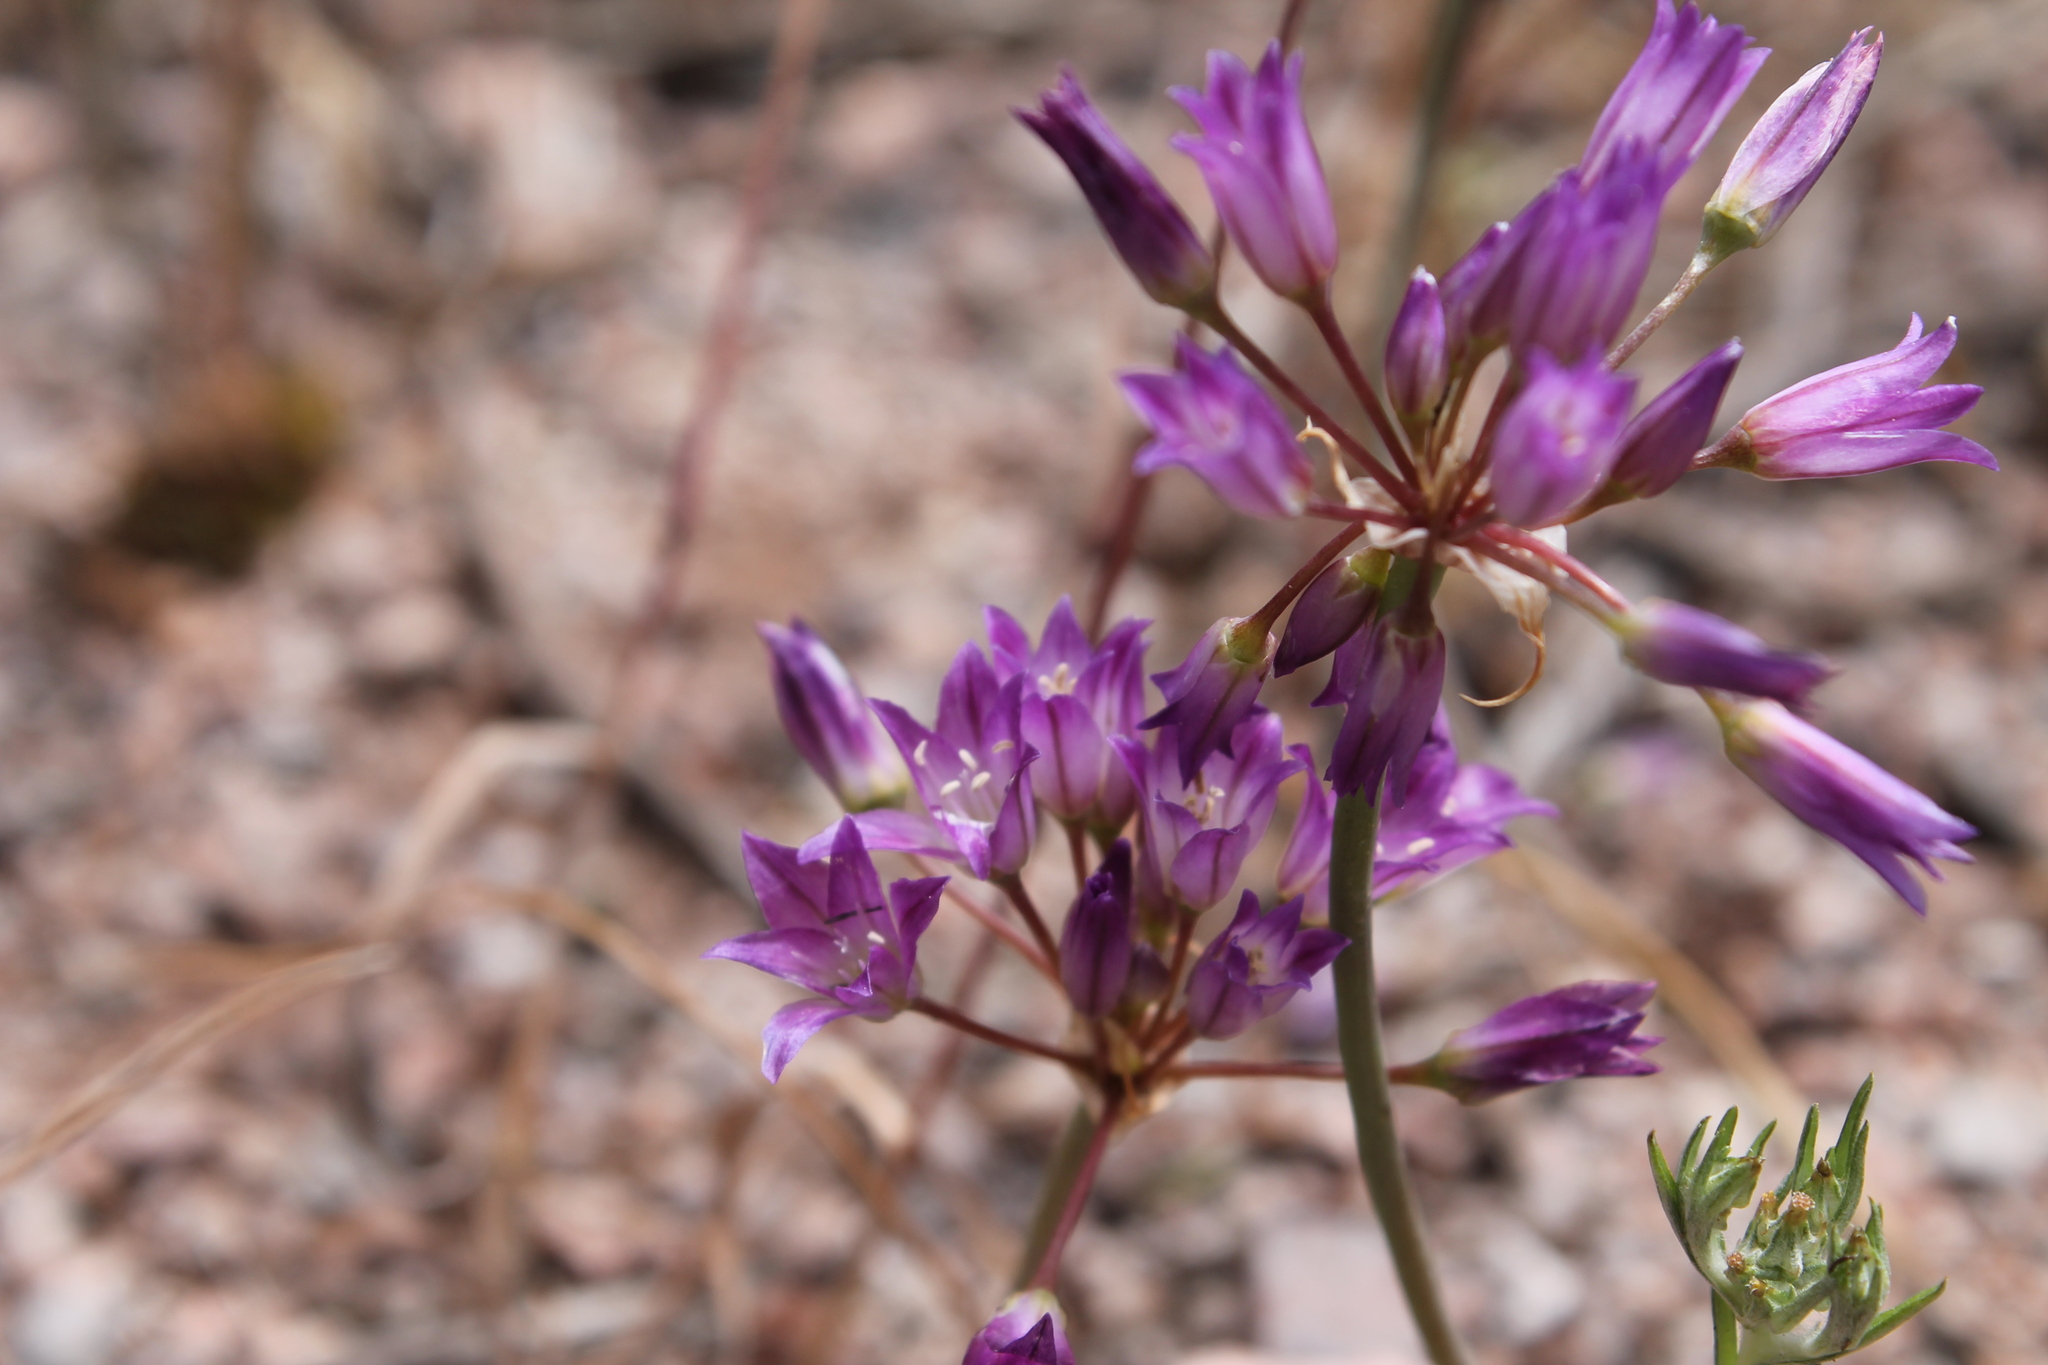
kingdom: Plantae
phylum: Tracheophyta
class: Liliopsida
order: Asparagales
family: Amaryllidaceae
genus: Allium
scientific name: Allium fimbriatum
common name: Fringed onion
